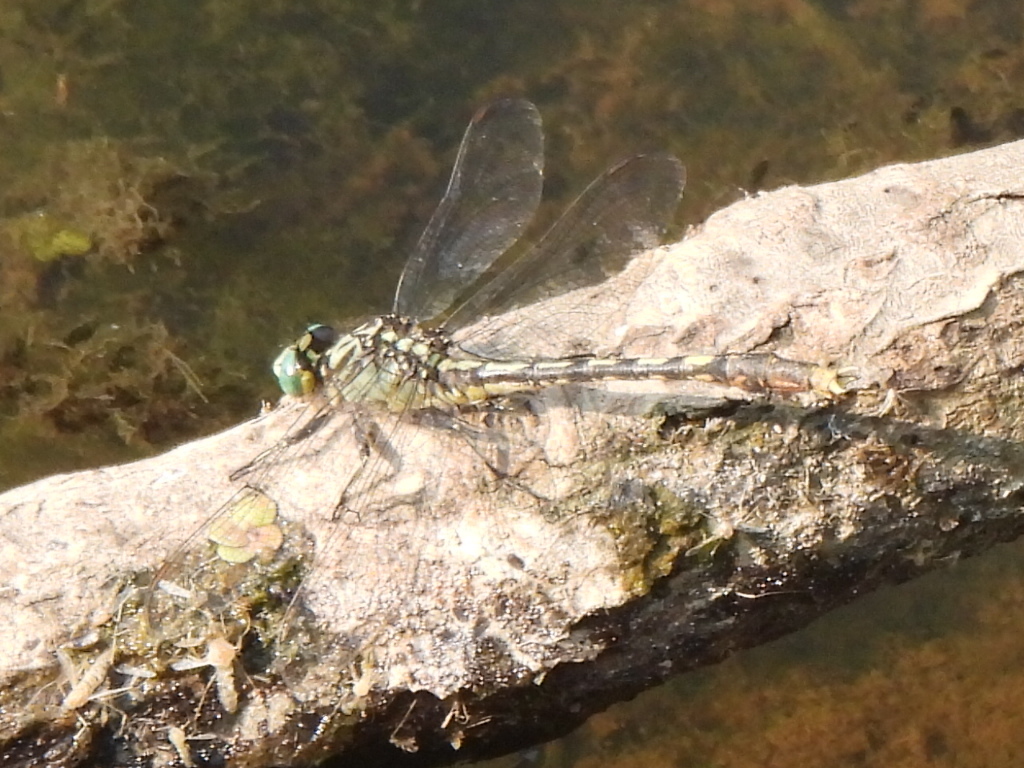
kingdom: Animalia
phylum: Arthropoda
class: Insecta
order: Odonata
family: Gomphidae
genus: Arigomphus
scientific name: Arigomphus villosipes
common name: Unicorn clubtail
